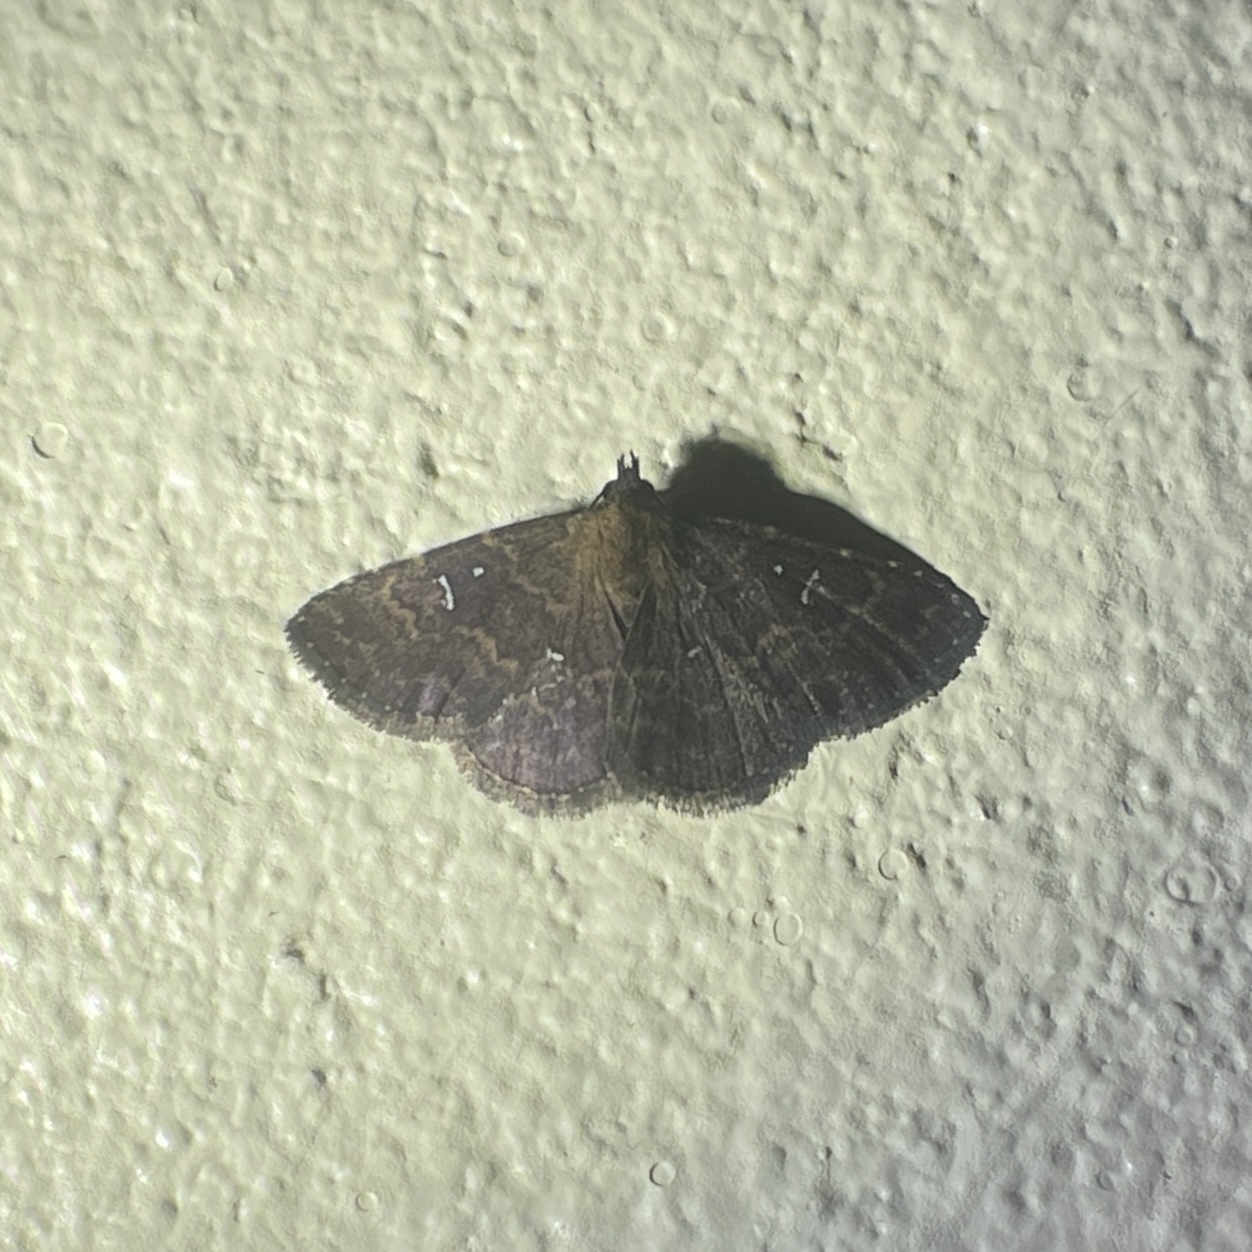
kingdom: Animalia
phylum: Arthropoda
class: Insecta
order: Lepidoptera
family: Erebidae
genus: Ostha
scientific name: Ostha coryphata
